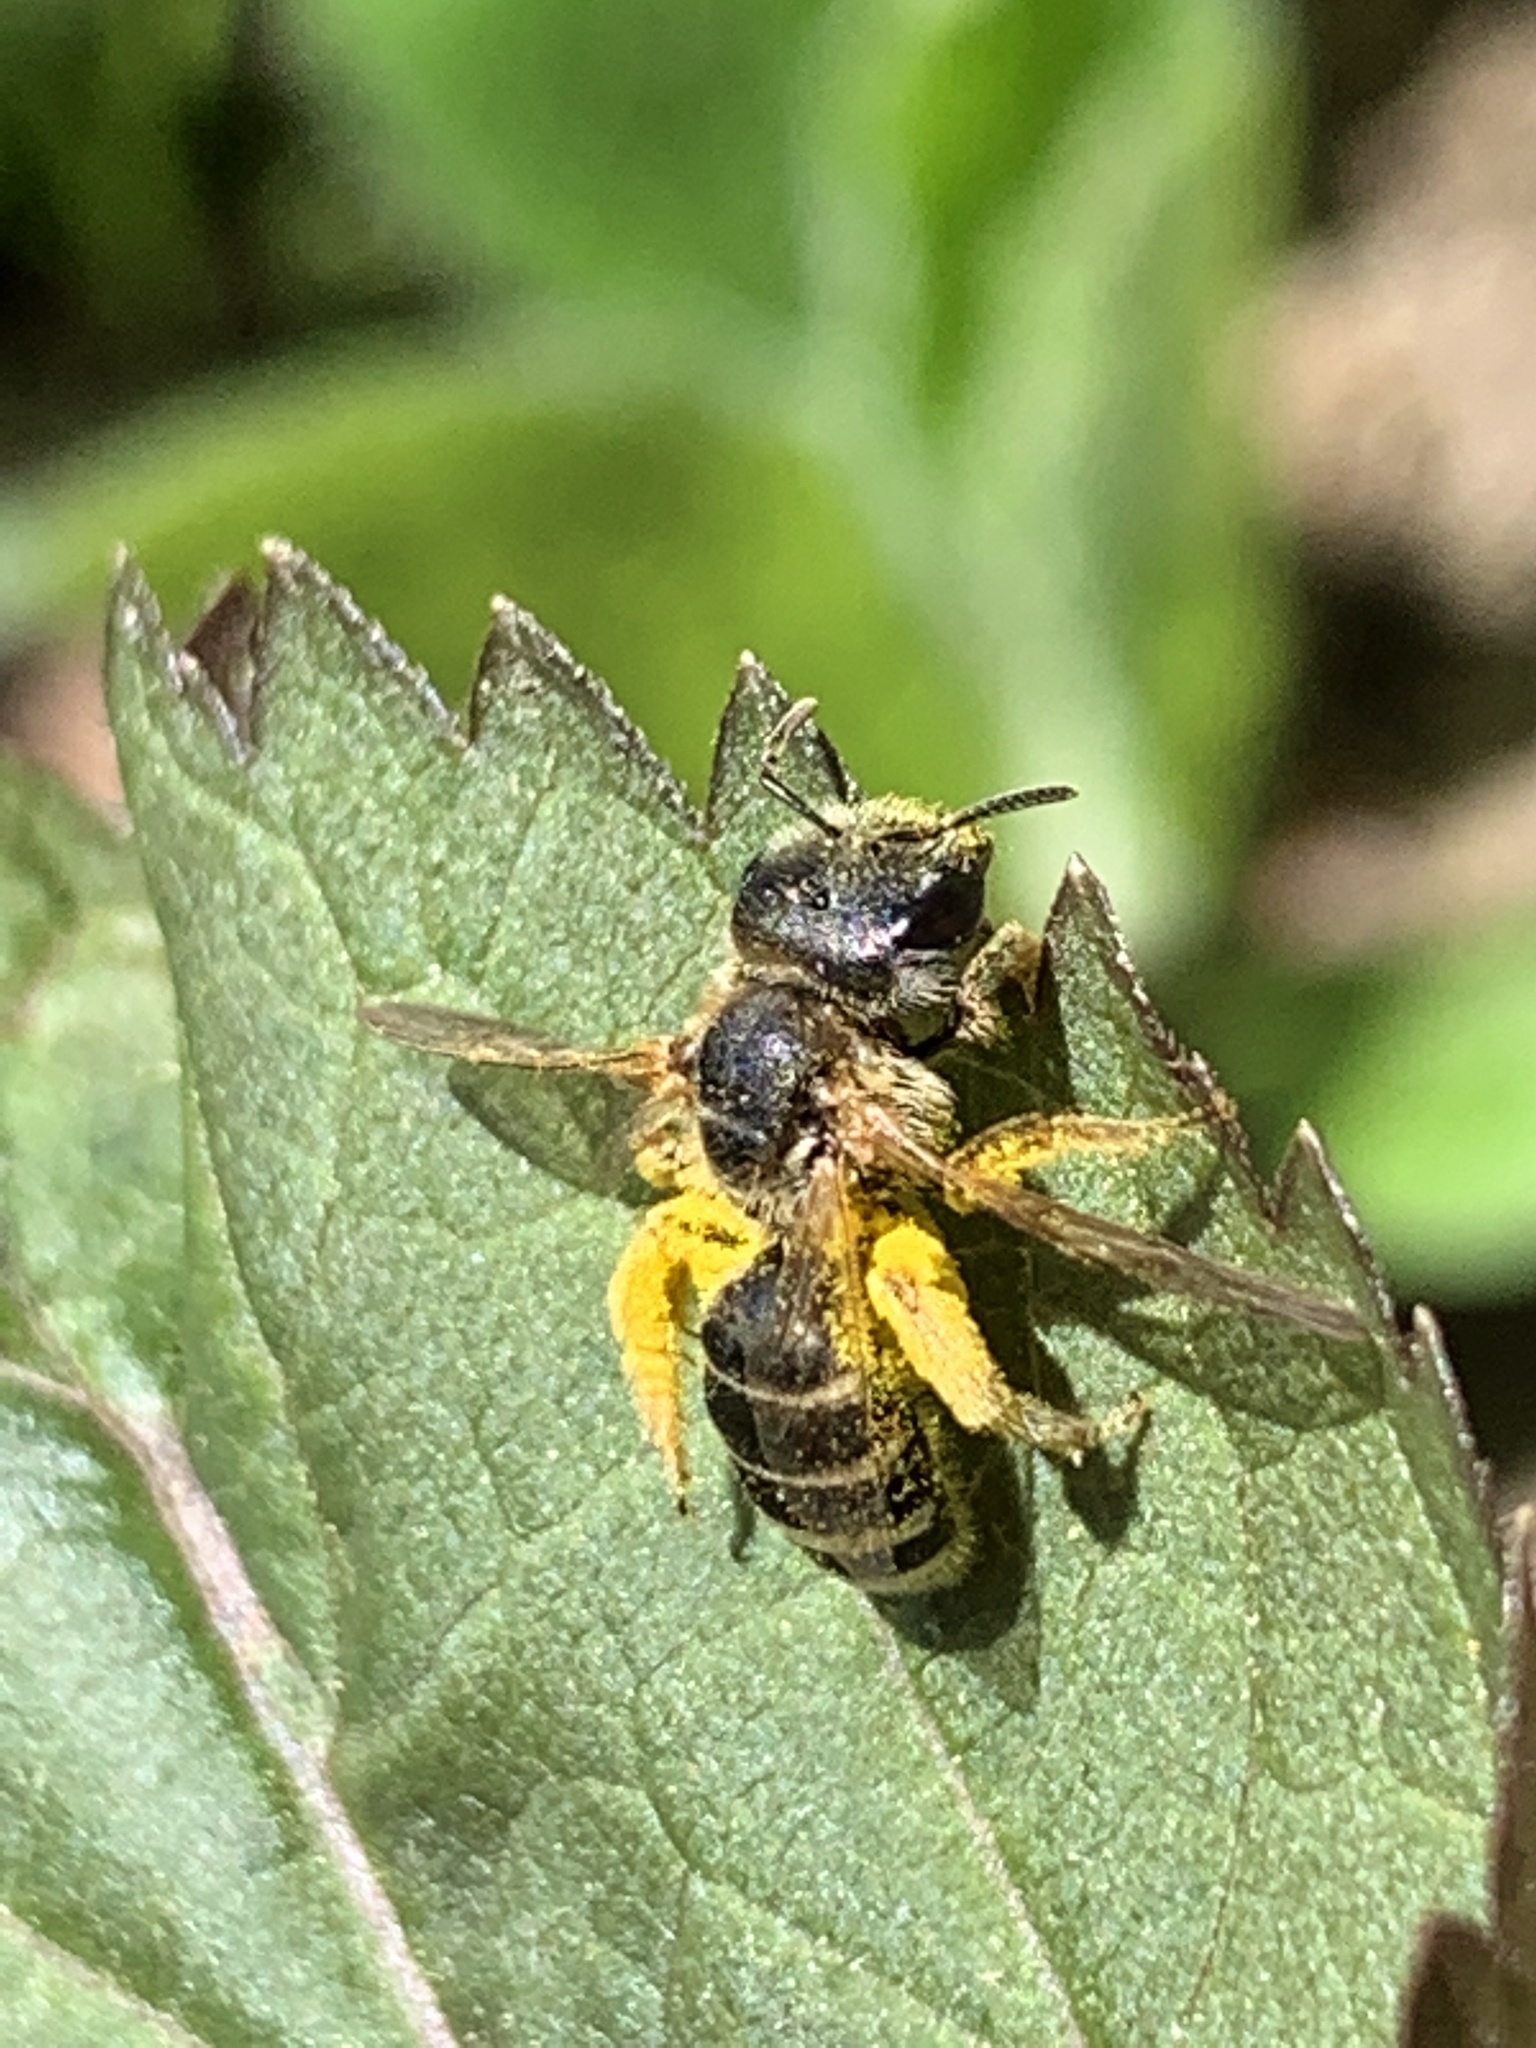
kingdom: Animalia
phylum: Arthropoda
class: Insecta
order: Hymenoptera
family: Halictidae
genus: Halictus
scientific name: Halictus ligatus
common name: Ligated furrow bee
